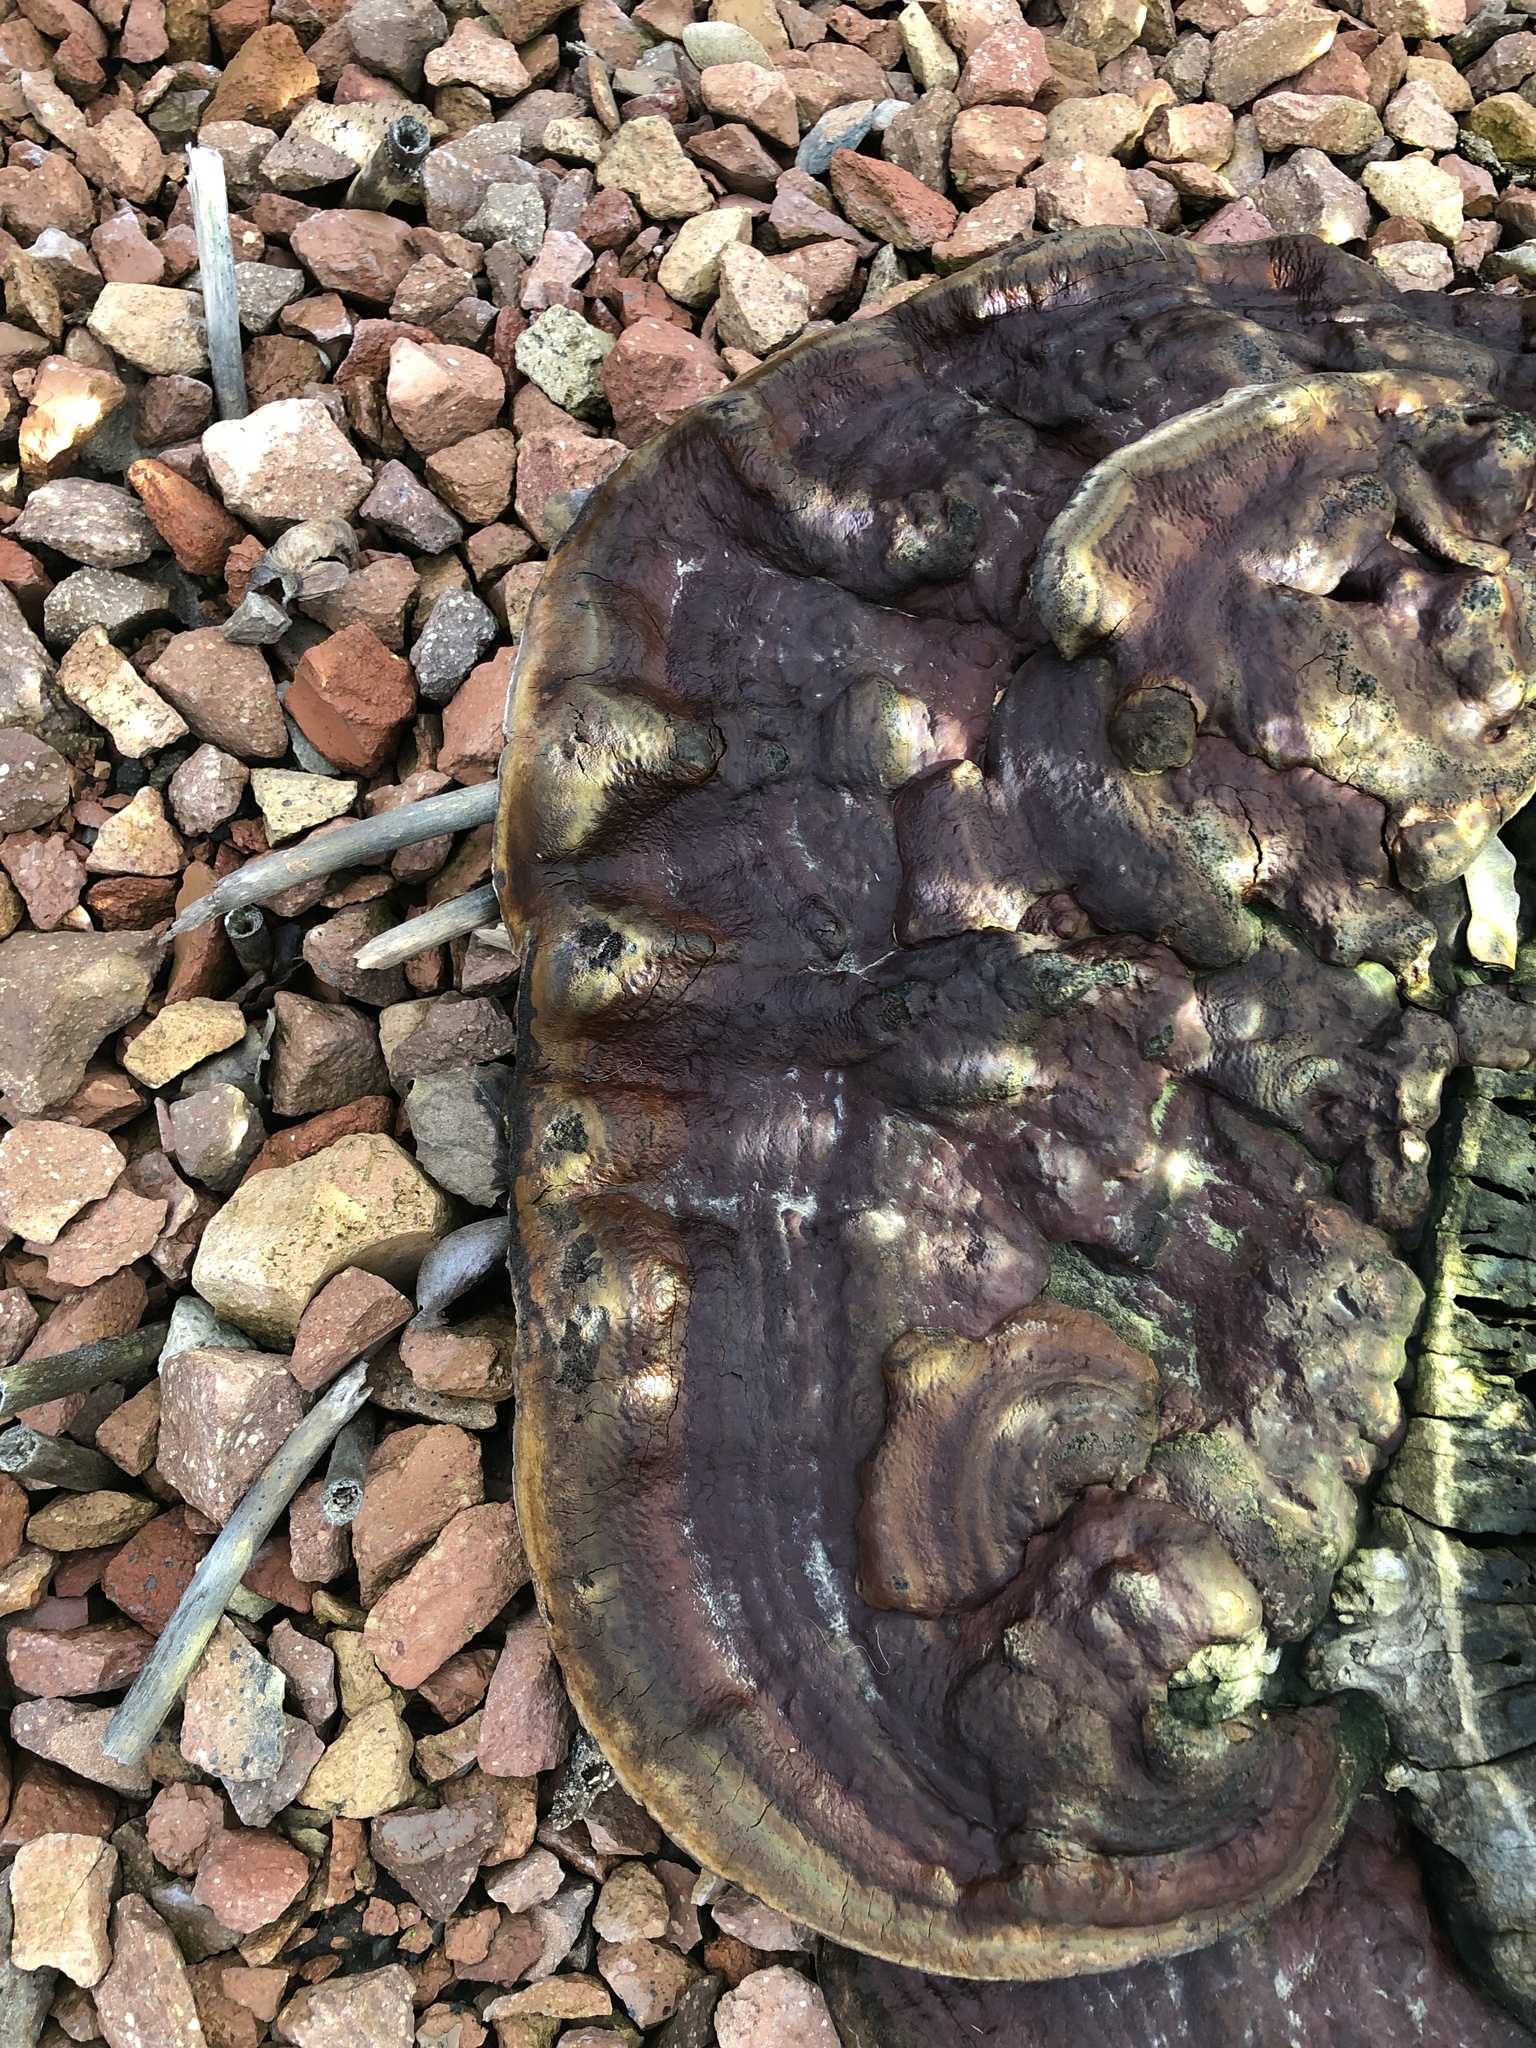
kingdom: Fungi
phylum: Basidiomycota
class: Agaricomycetes
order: Polyporales
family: Ischnodermataceae
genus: Ischnoderma
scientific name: Ischnoderma resinosum
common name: Resinous polypore
